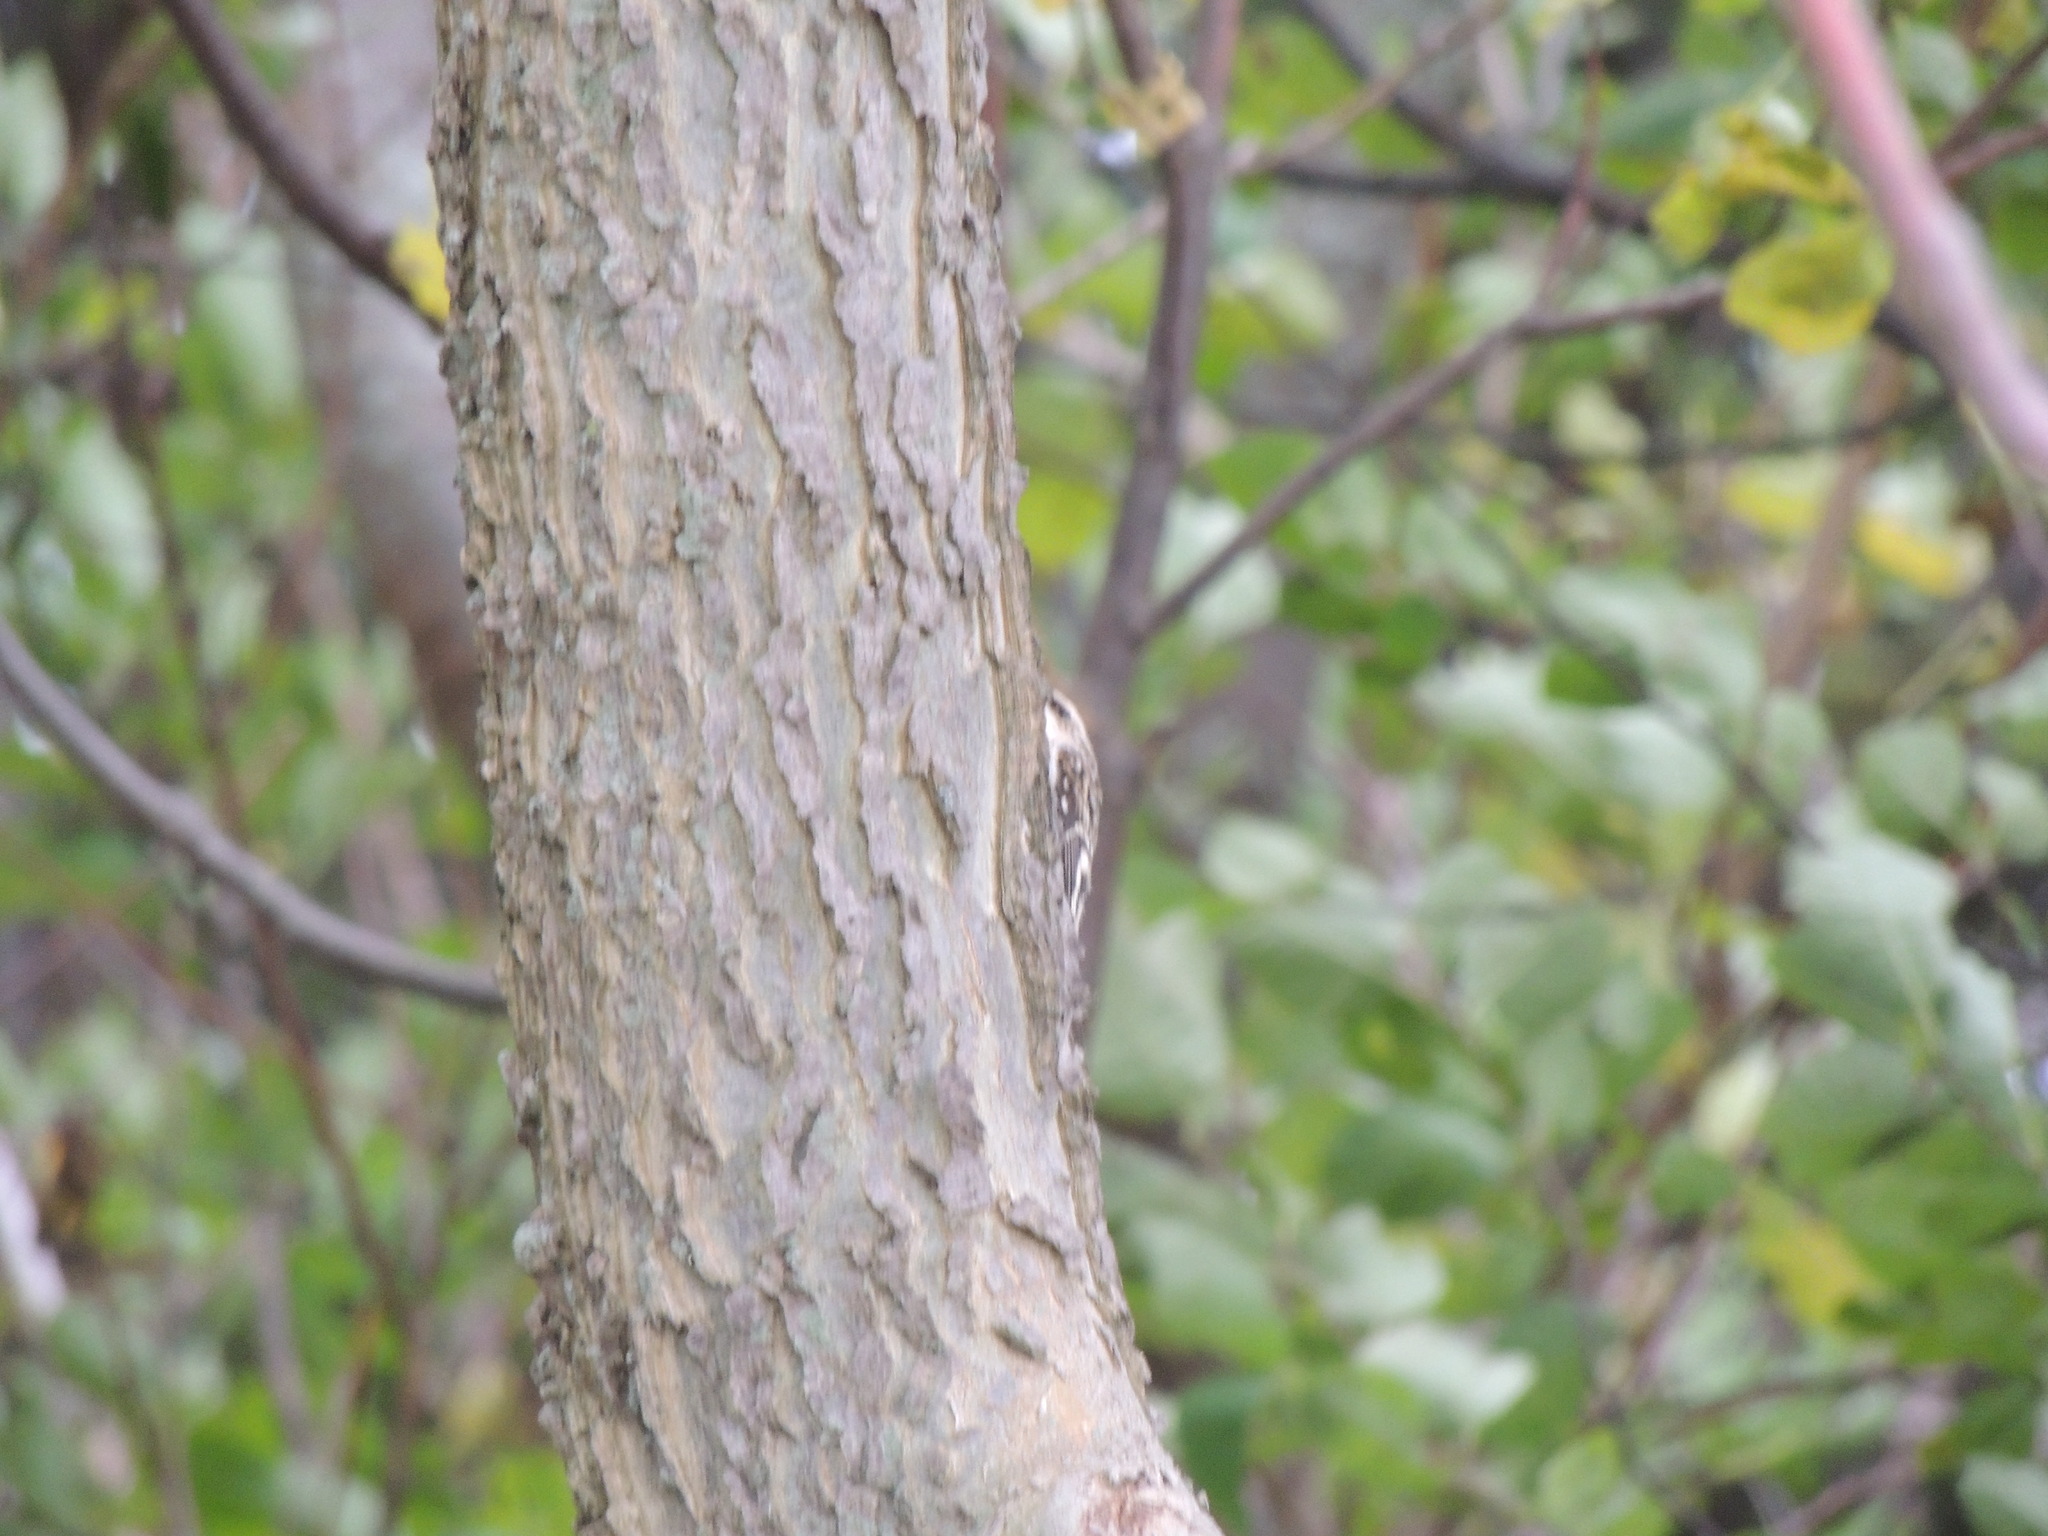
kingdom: Animalia
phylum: Chordata
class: Aves
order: Passeriformes
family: Certhiidae
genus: Certhia
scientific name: Certhia americana
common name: Brown creeper
